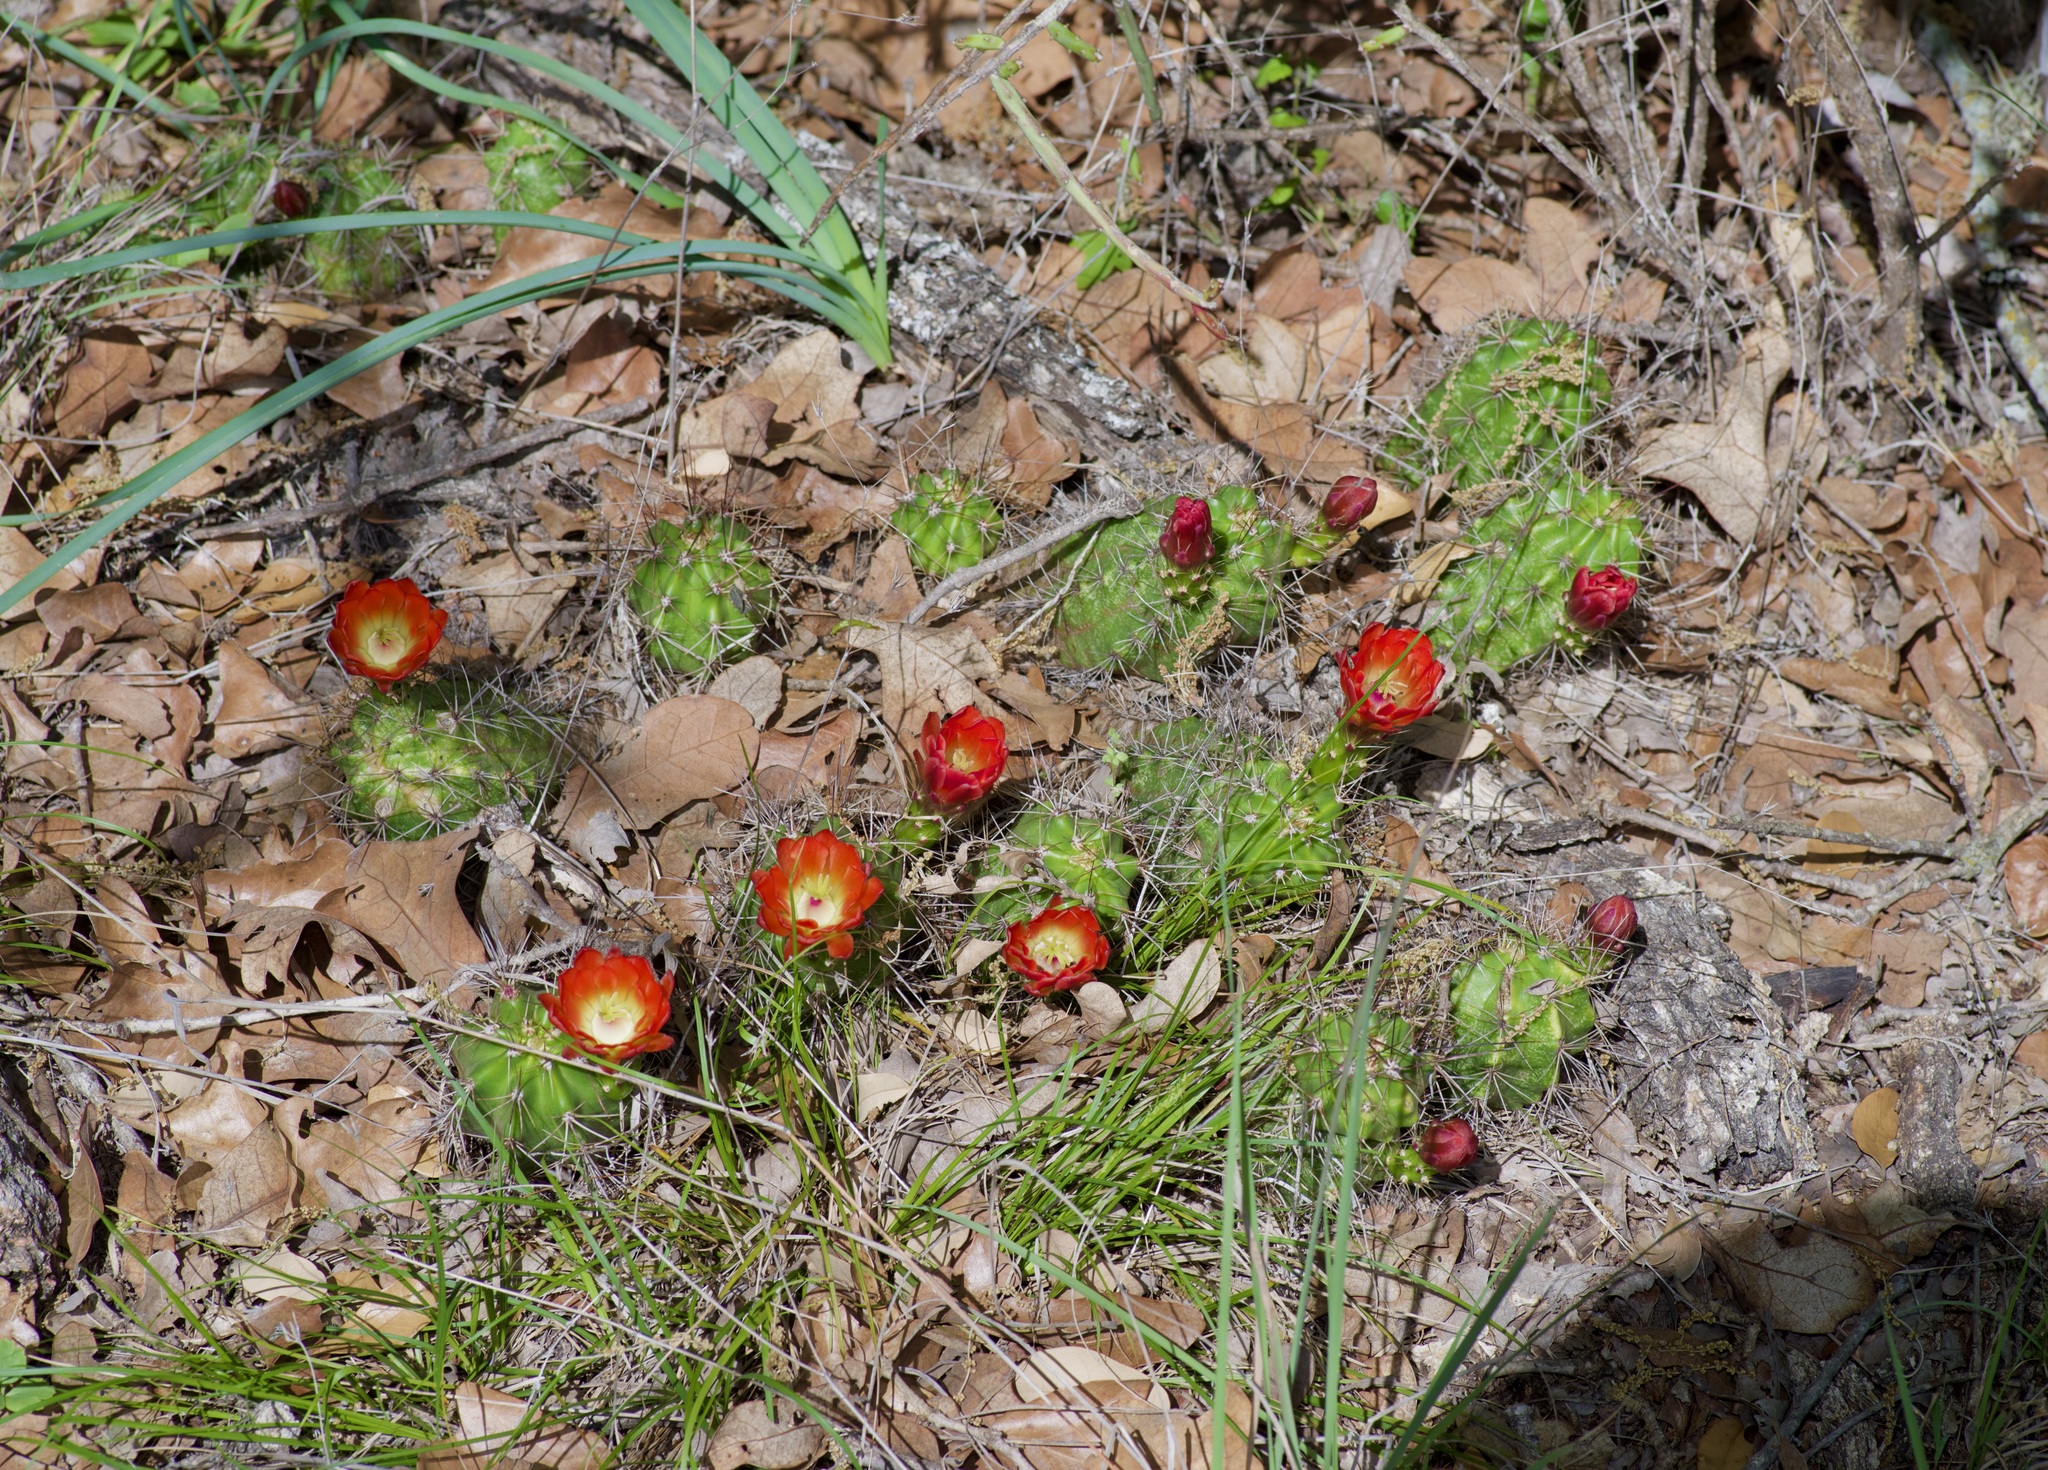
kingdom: Plantae
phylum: Tracheophyta
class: Magnoliopsida
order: Caryophyllales
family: Cactaceae
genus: Echinocereus
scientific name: Echinocereus coccineus
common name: Scarlet hedgehog cactus
